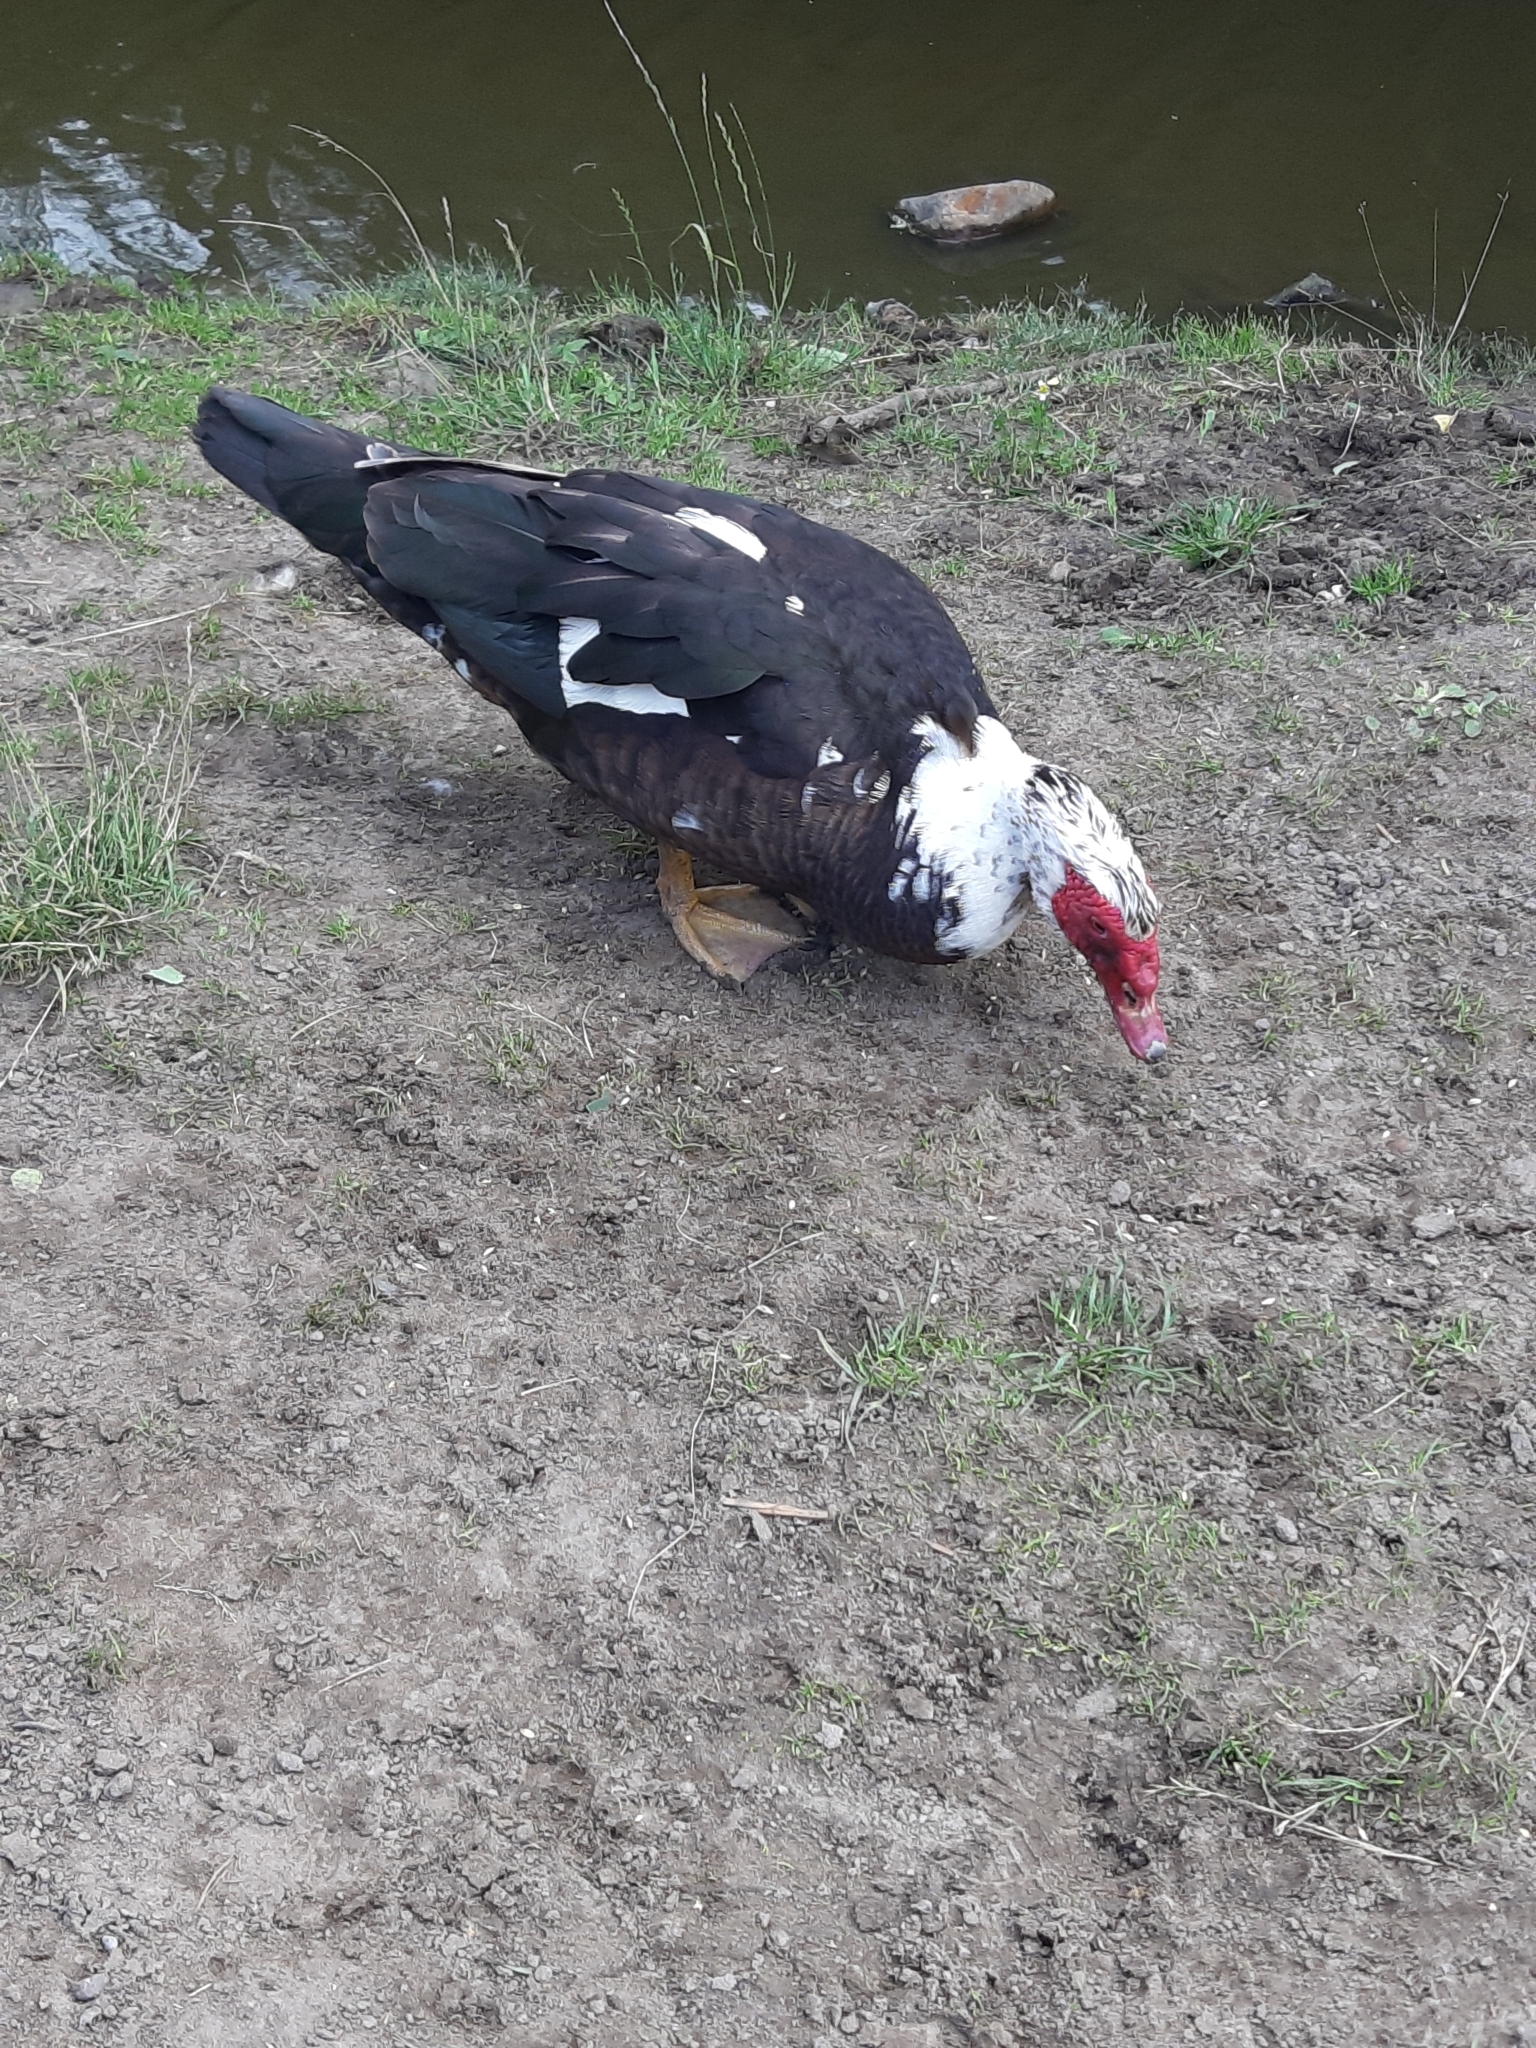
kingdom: Animalia
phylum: Chordata
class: Aves
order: Anseriformes
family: Anatidae
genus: Cairina
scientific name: Cairina moschata
